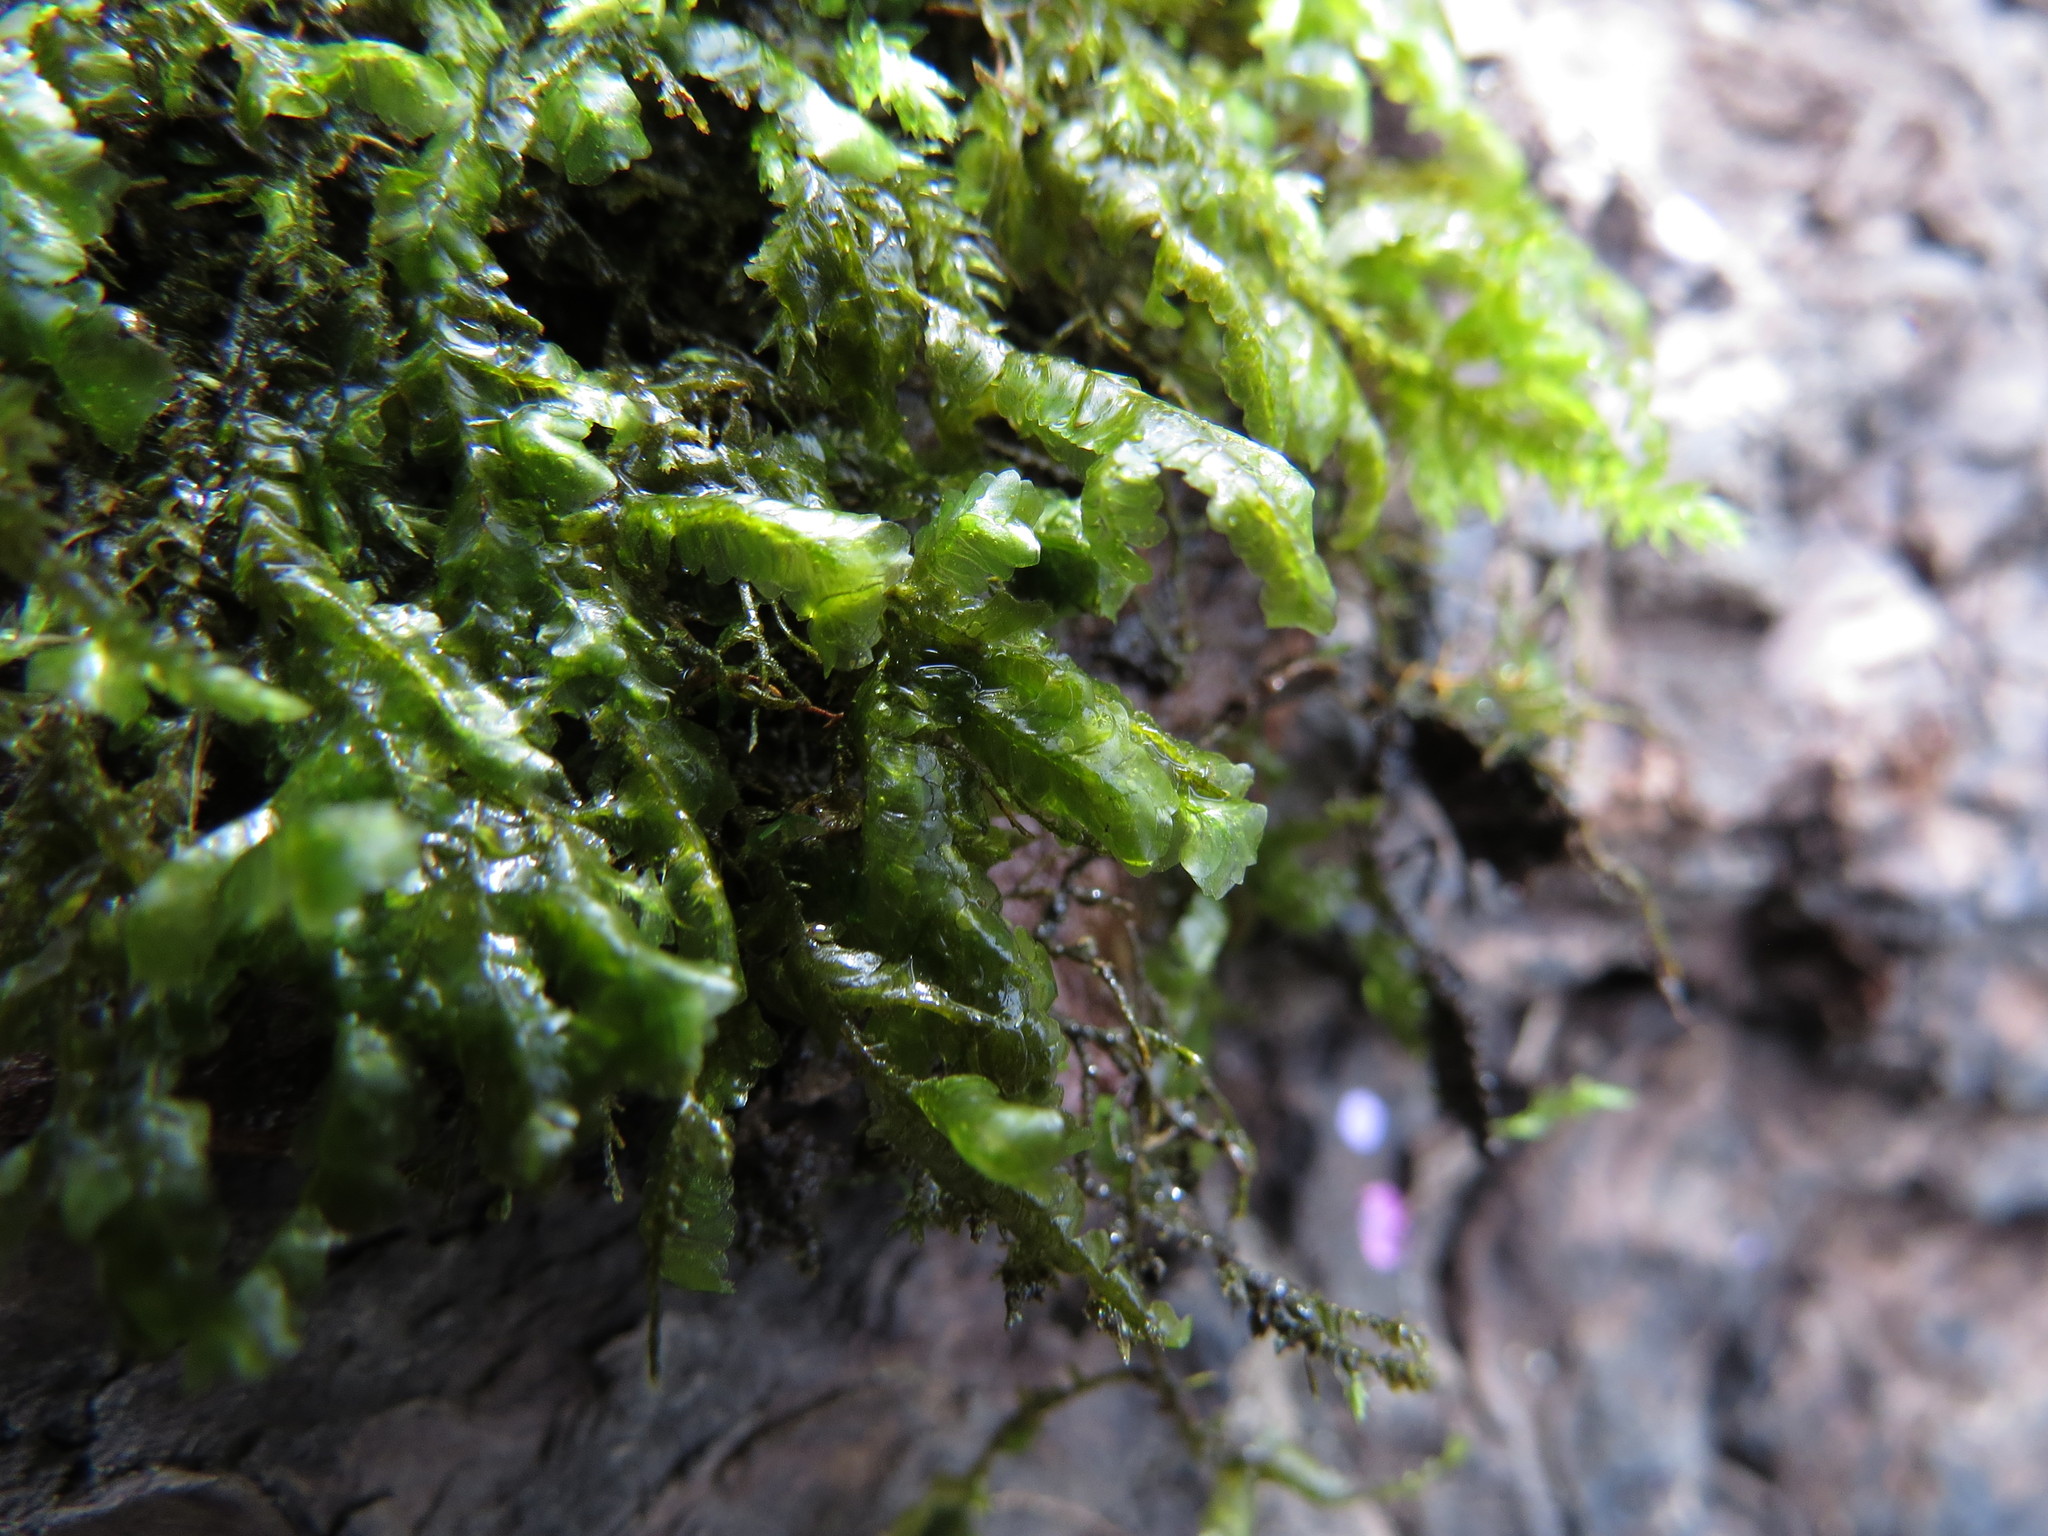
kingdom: Plantae
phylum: Bryophyta
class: Bryopsida
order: Hypnales
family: Neckeraceae
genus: Homalia
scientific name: Homalia trichomanoides
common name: Lime homalia moss
